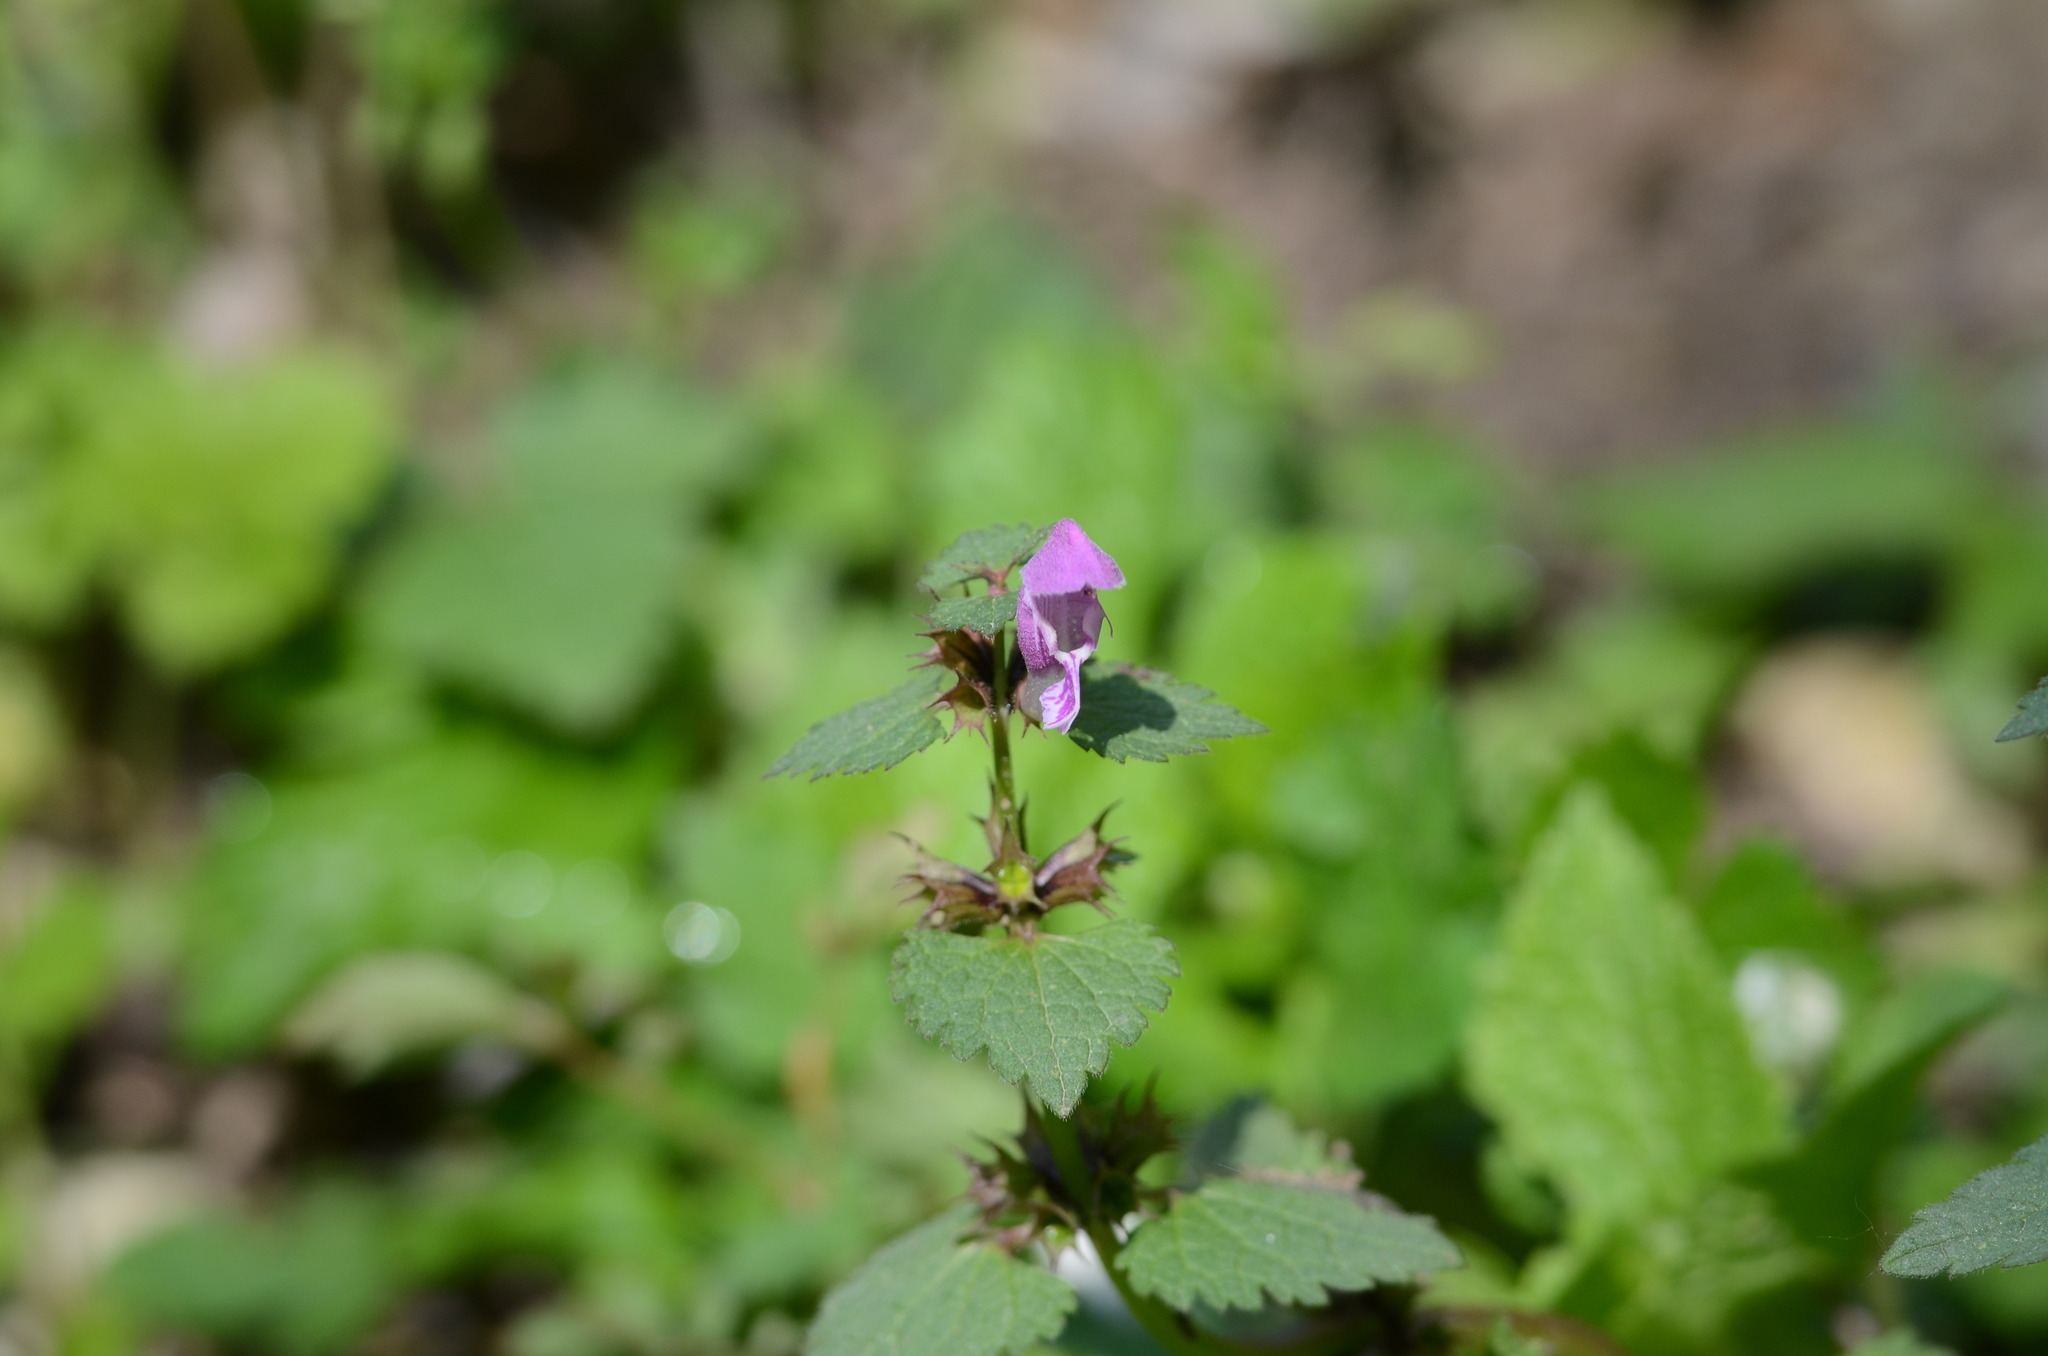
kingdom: Plantae
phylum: Tracheophyta
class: Magnoliopsida
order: Lamiales
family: Lamiaceae
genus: Lamium
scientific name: Lamium maculatum
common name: Spotted dead-nettle
